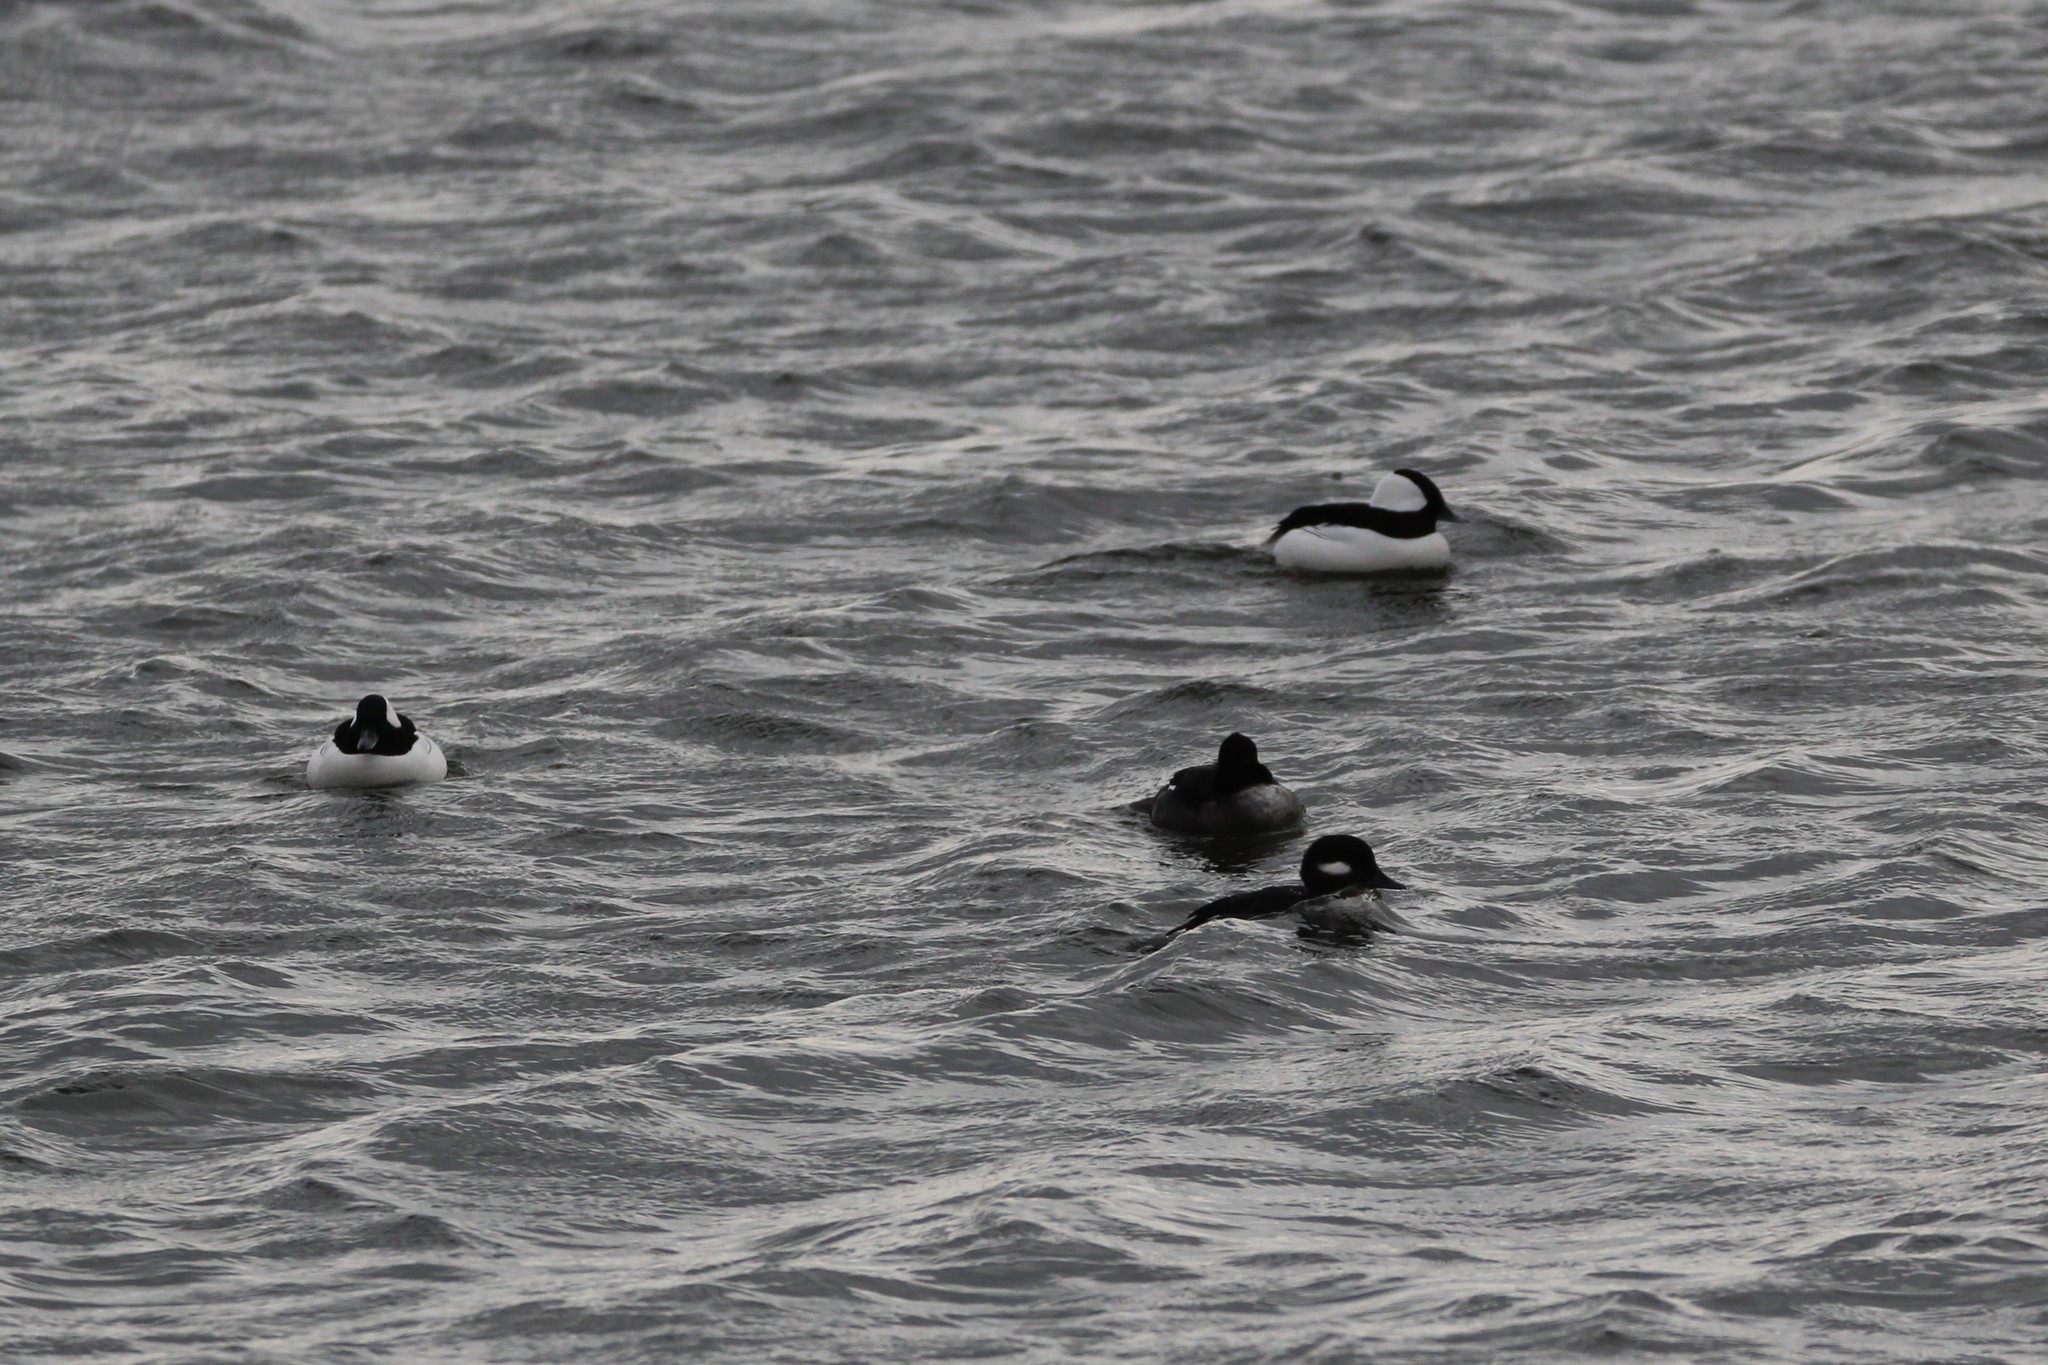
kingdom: Animalia
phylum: Chordata
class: Aves
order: Anseriformes
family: Anatidae
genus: Bucephala
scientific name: Bucephala albeola
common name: Bufflehead
